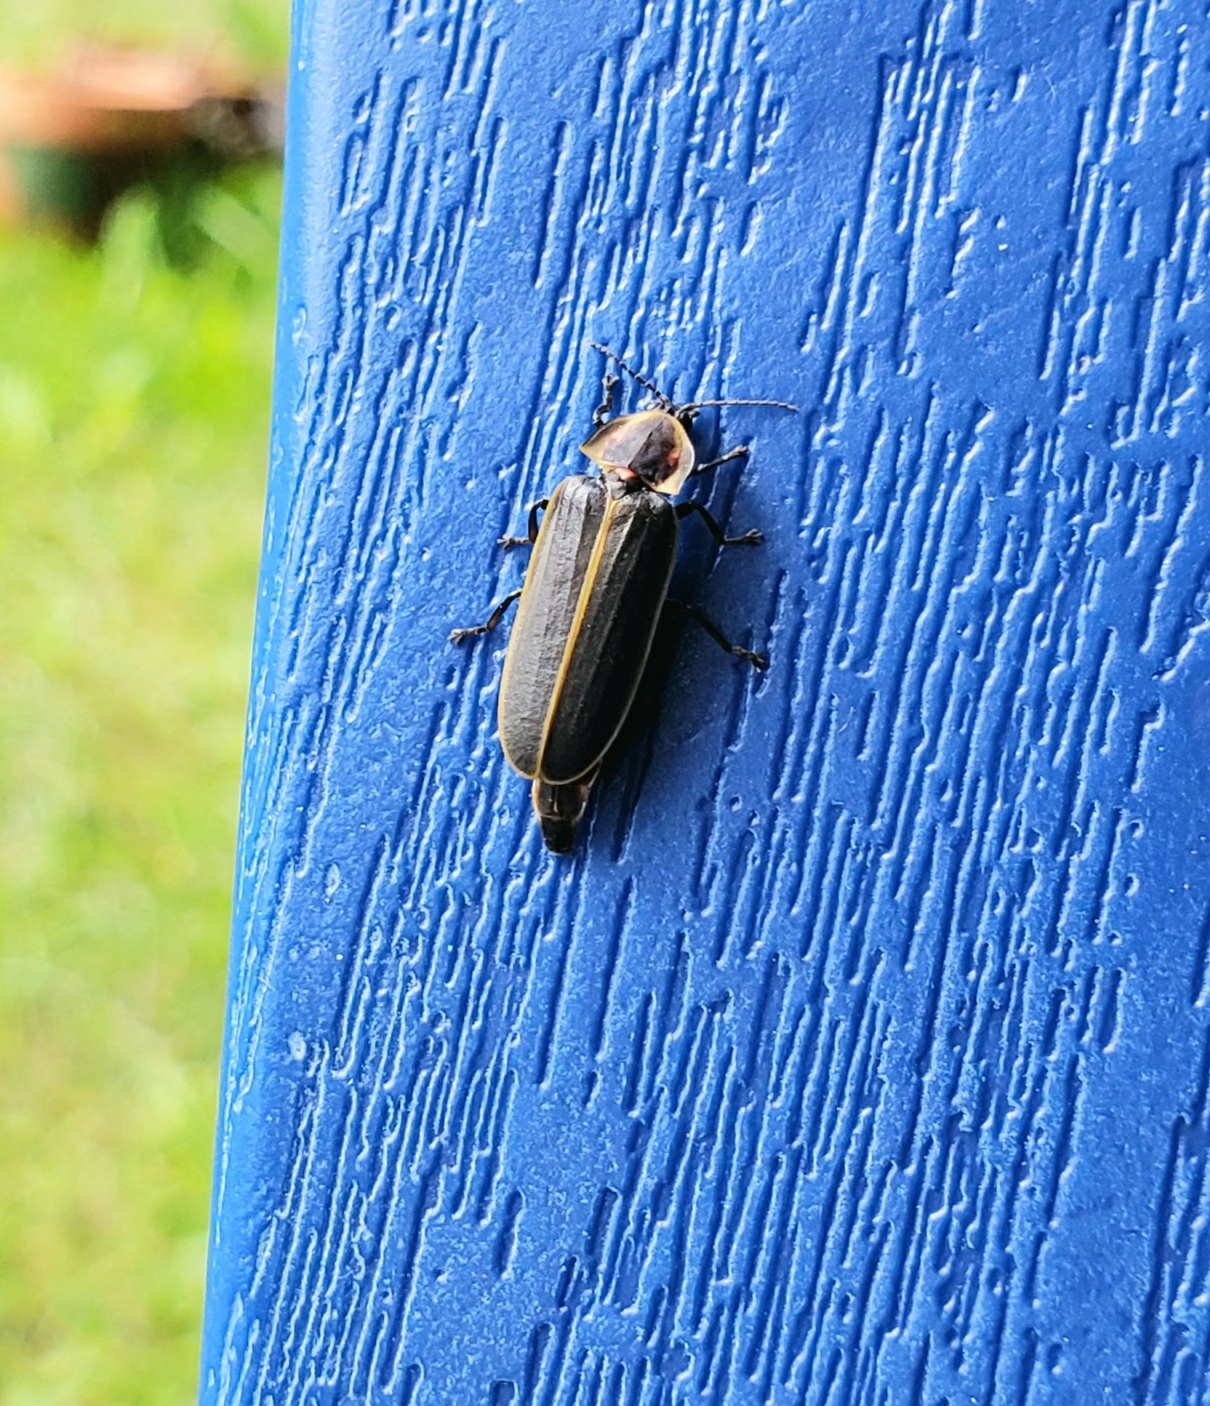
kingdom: Animalia
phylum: Arthropoda
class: Insecta
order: Coleoptera
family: Lampyridae
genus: Pyractomena
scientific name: Pyractomena borealis
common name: Northern firefly
